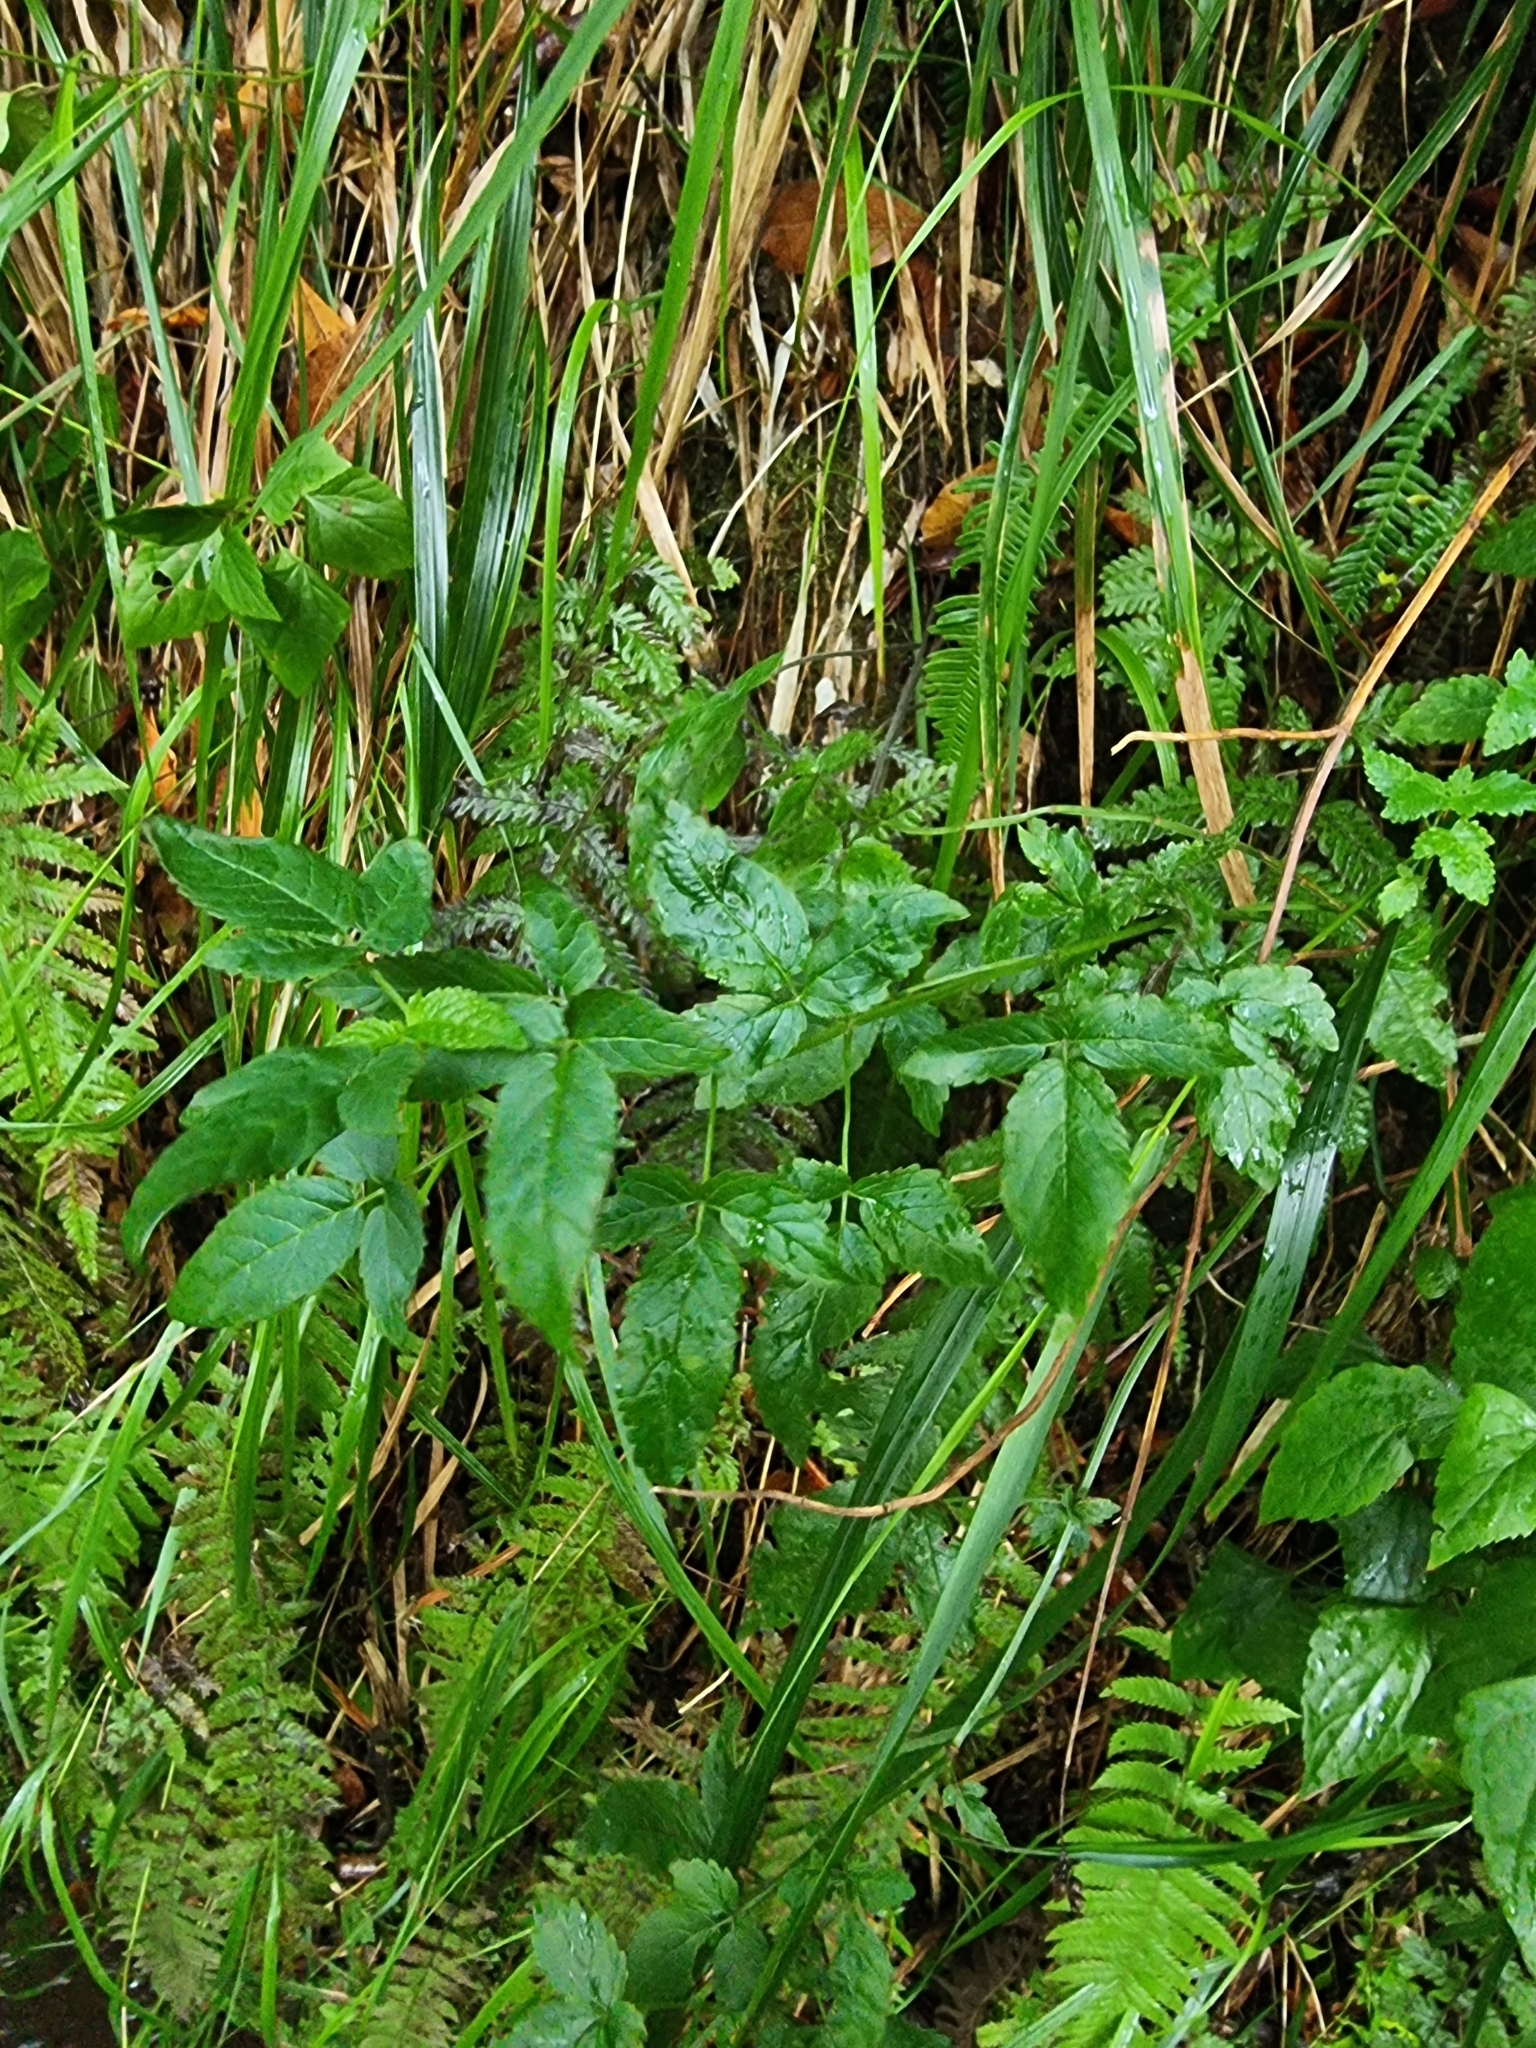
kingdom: Plantae
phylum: Tracheophyta
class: Magnoliopsida
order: Lamiales
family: Lamiaceae
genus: Cedronella
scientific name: Cedronella canariensis
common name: Canary islands balm
